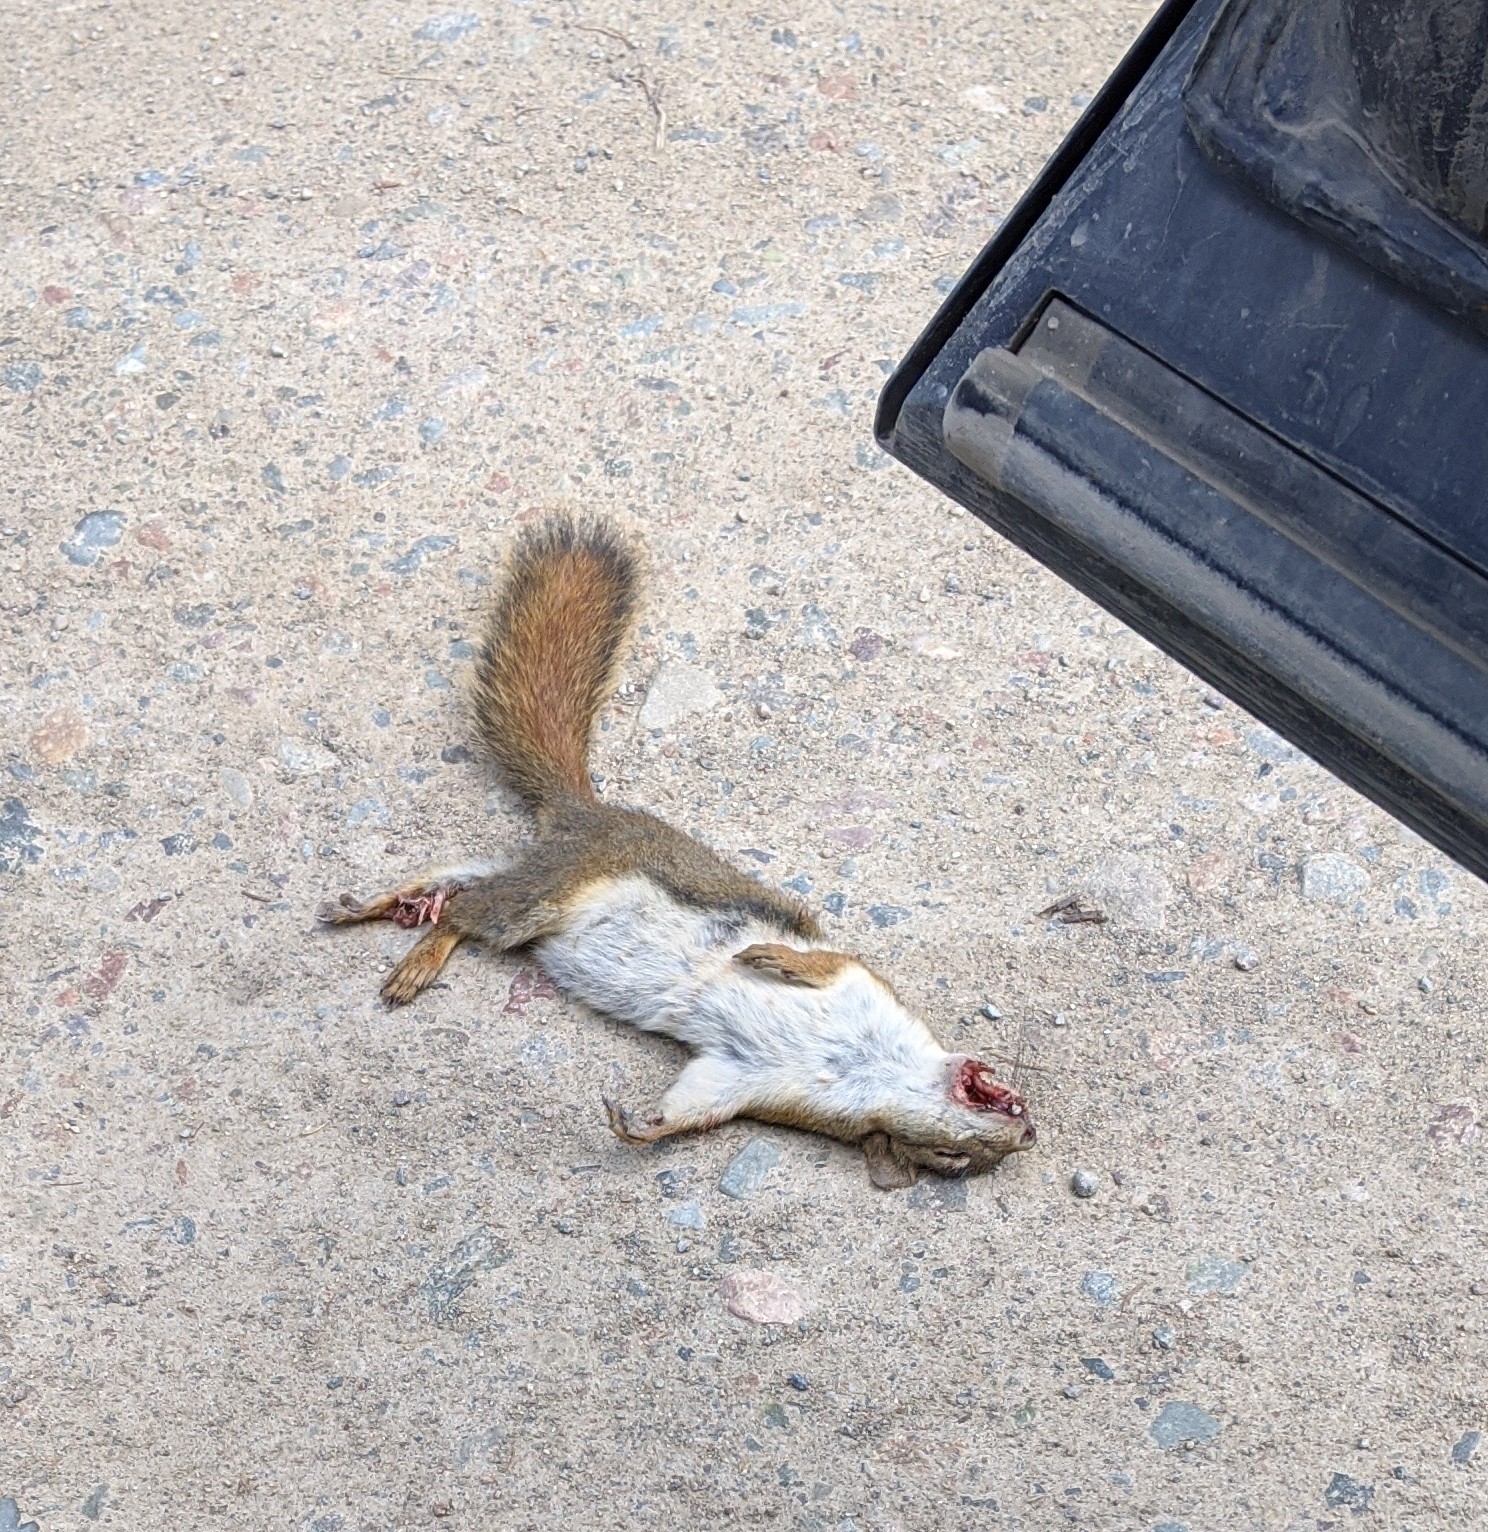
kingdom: Animalia
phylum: Chordata
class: Mammalia
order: Rodentia
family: Sciuridae
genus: Tamiasciurus
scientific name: Tamiasciurus hudsonicus
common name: Red squirrel
